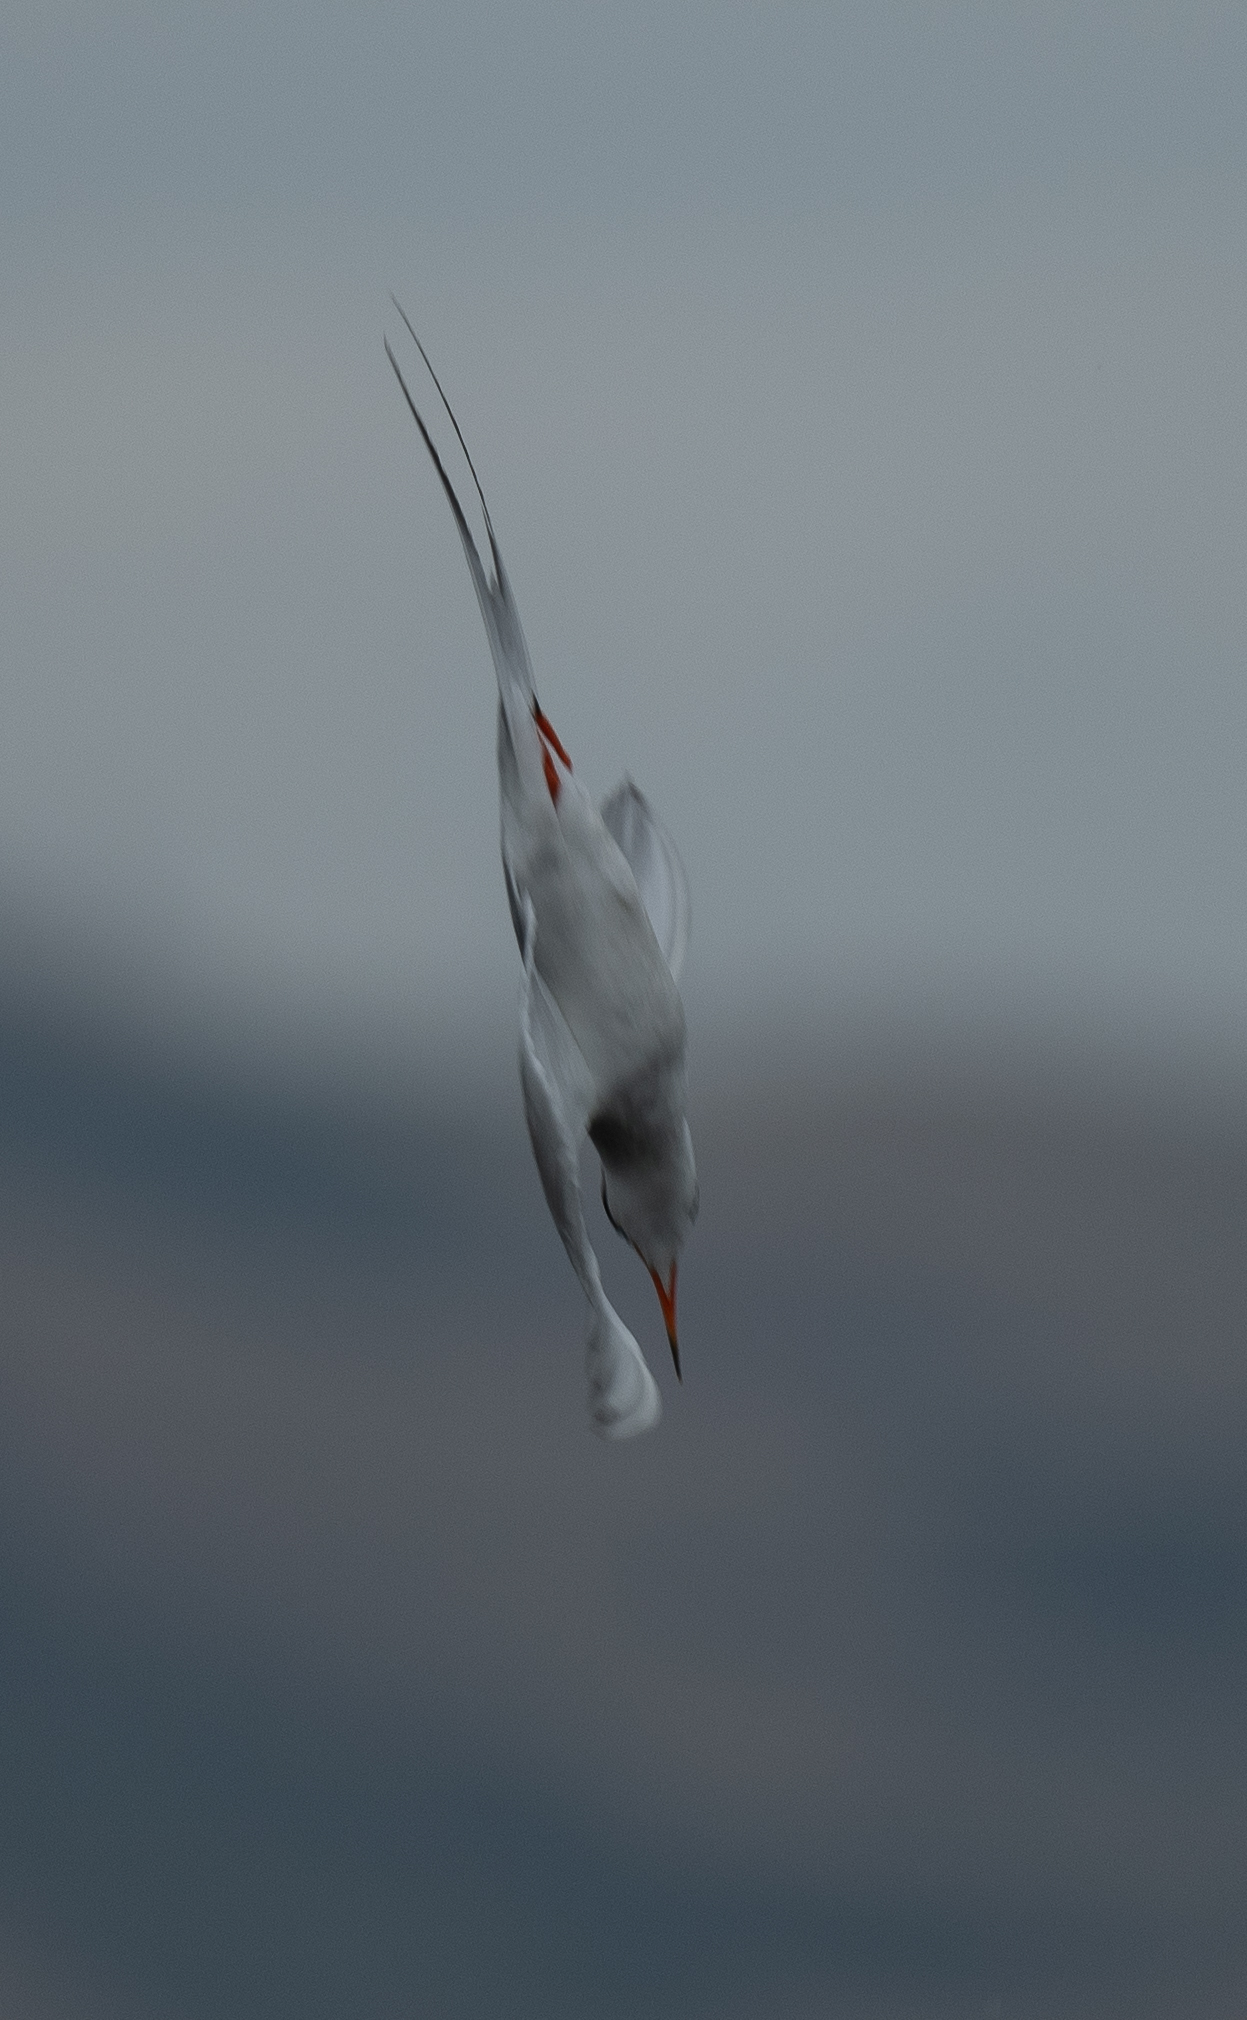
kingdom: Animalia
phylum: Chordata
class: Aves
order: Charadriiformes
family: Laridae
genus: Sterna
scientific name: Sterna forsteri
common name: Forster's tern
